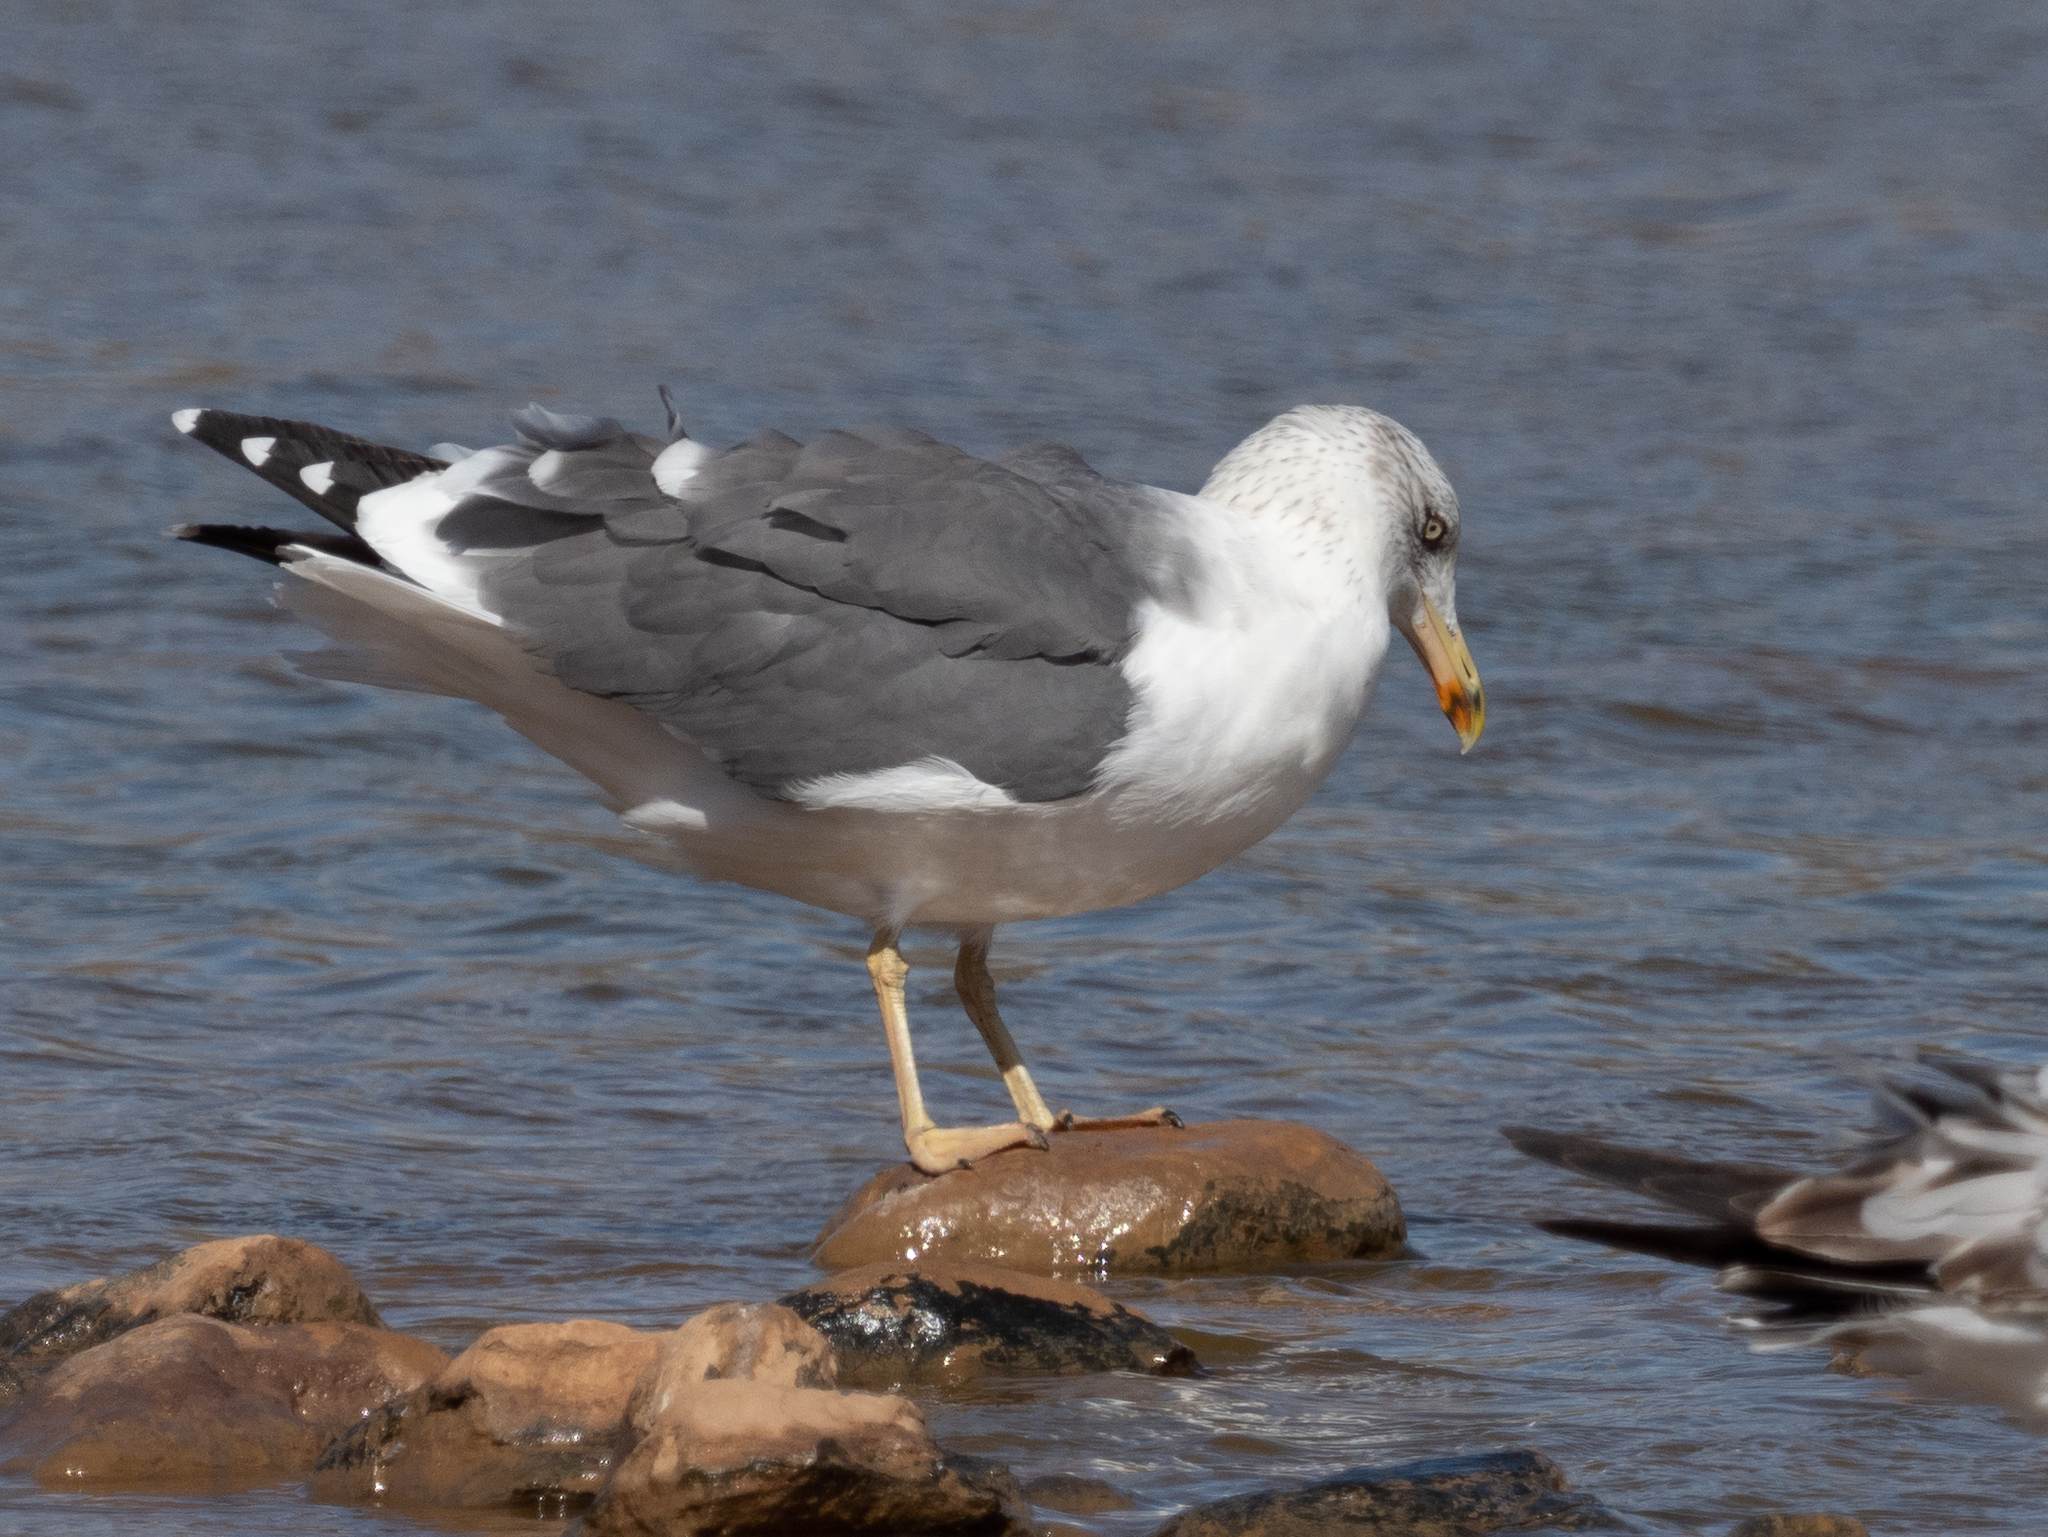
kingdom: Animalia
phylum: Chordata
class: Aves
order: Charadriiformes
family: Laridae
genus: Larus
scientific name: Larus michahellis
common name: Yellow-legged gull
